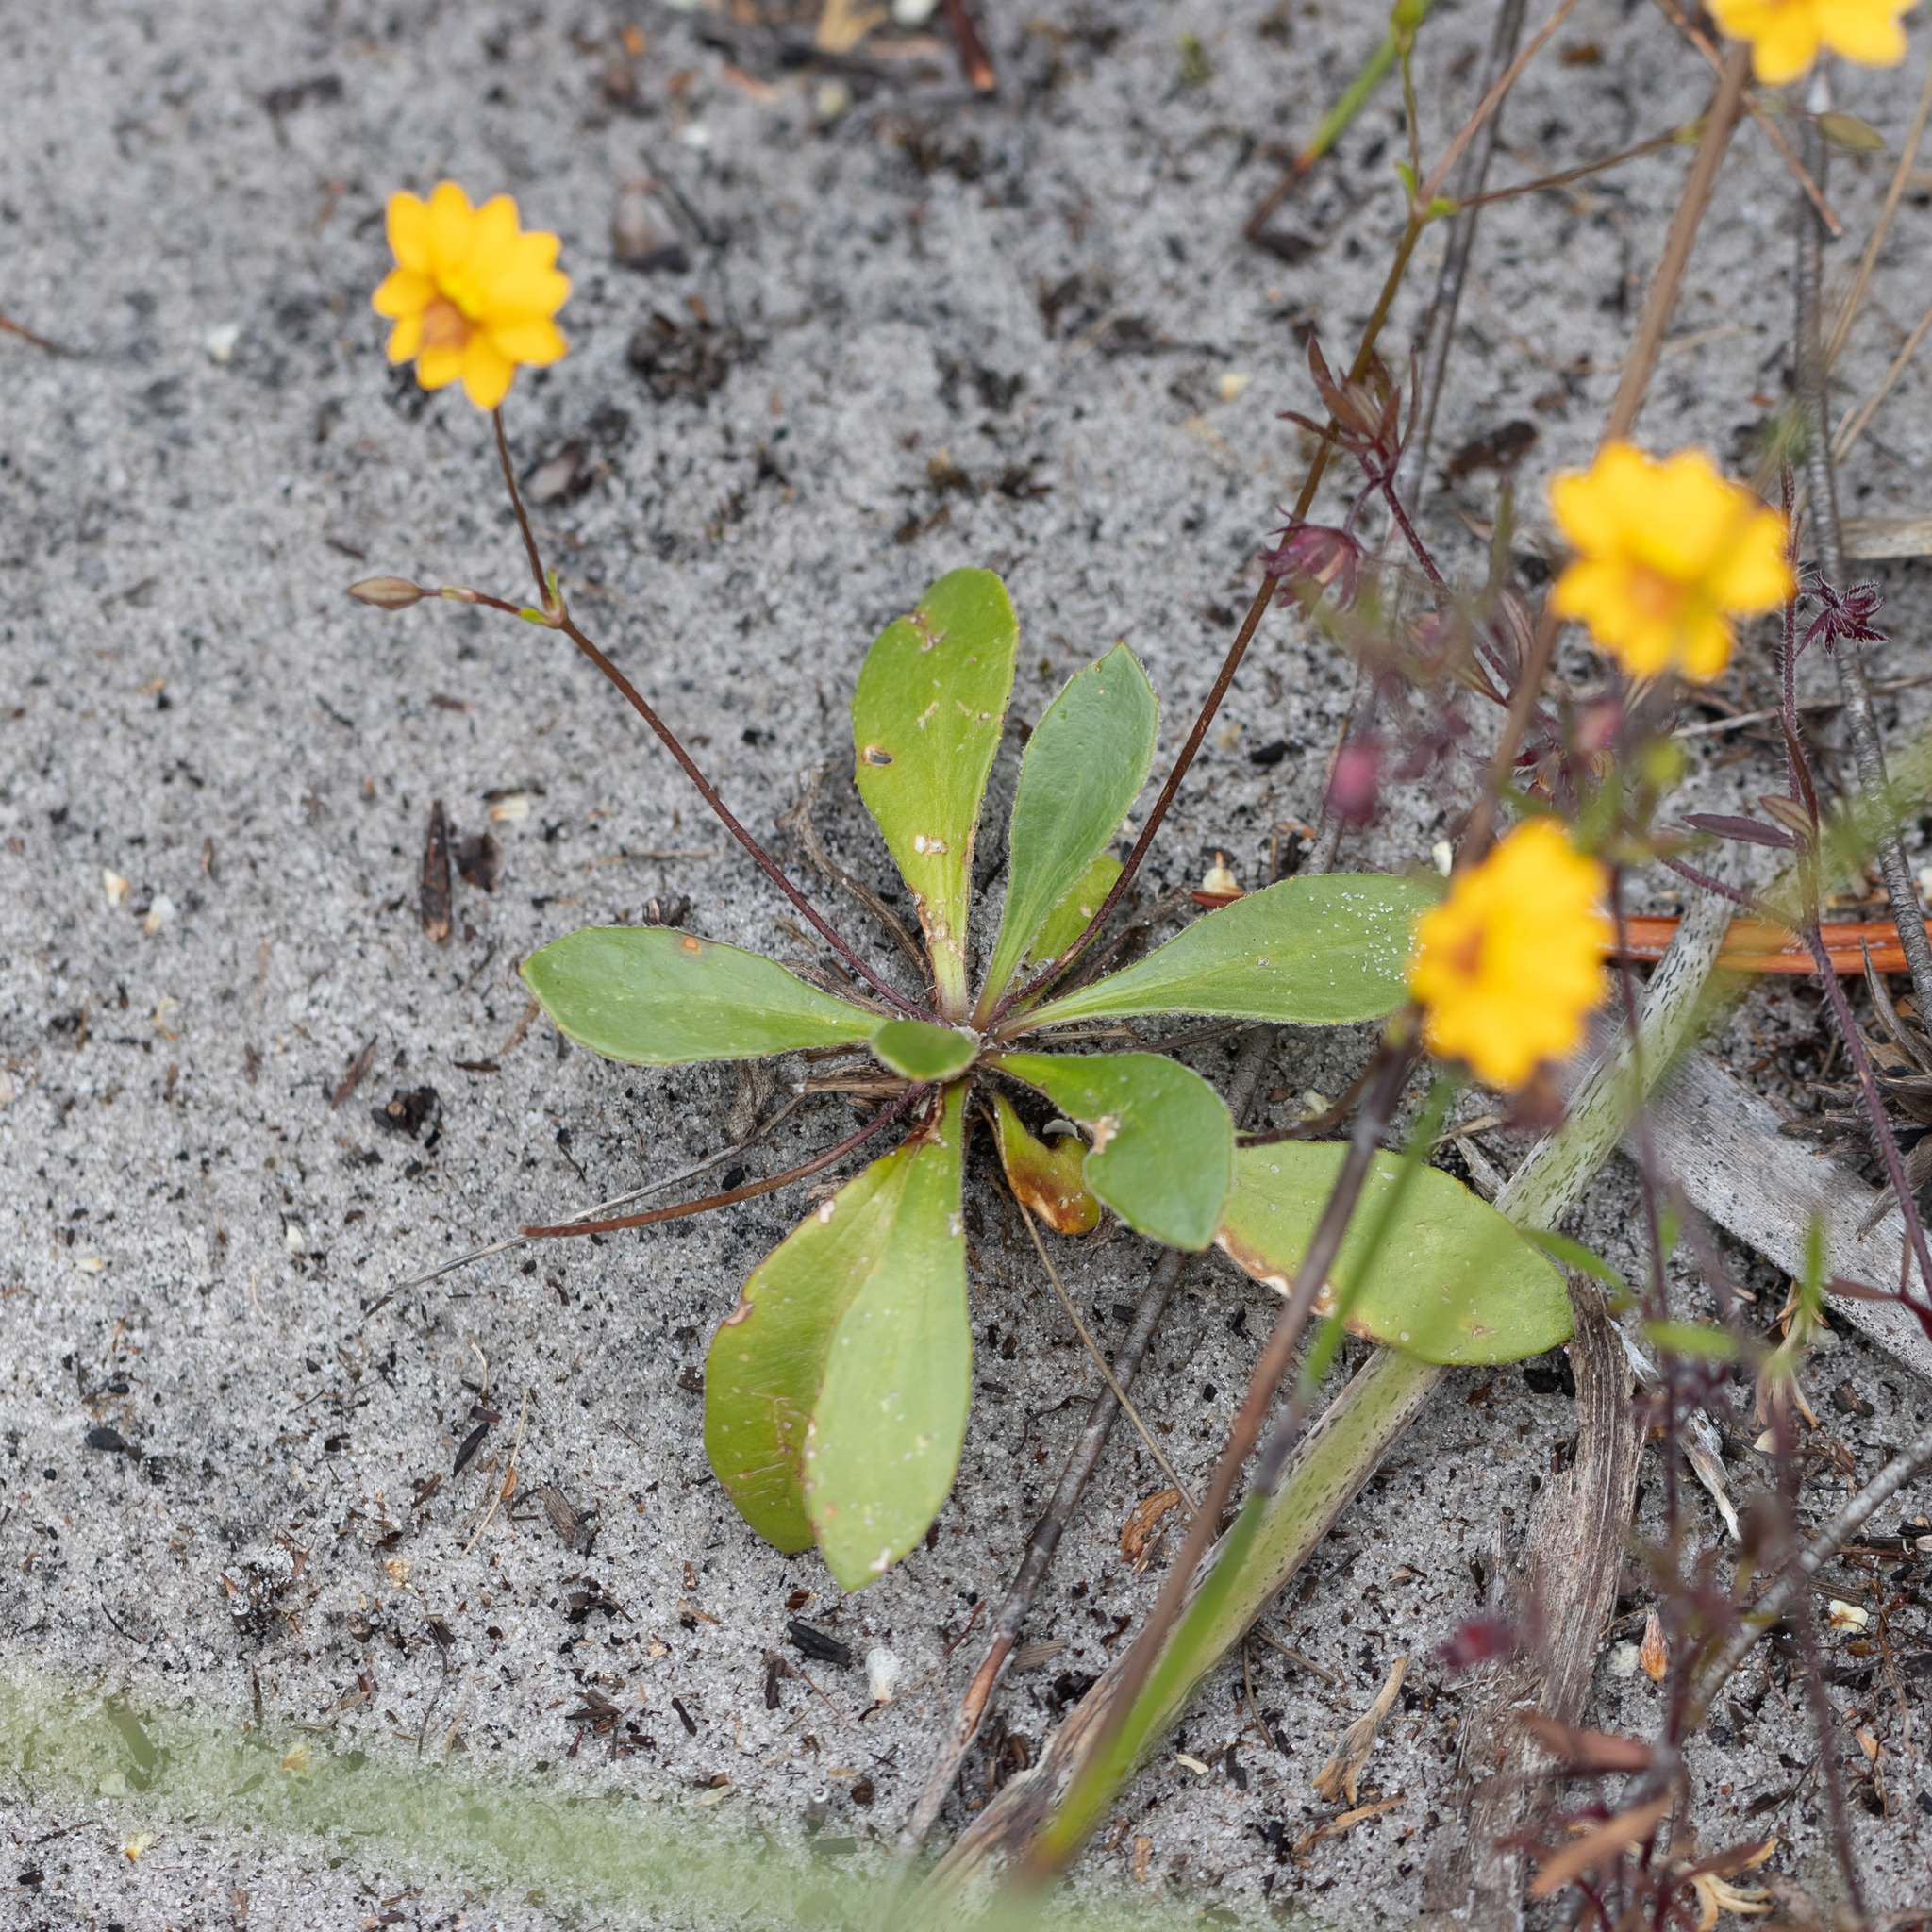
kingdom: Plantae
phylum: Tracheophyta
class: Magnoliopsida
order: Asterales
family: Goodeniaceae
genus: Goodenia
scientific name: Goodenia trinervis
